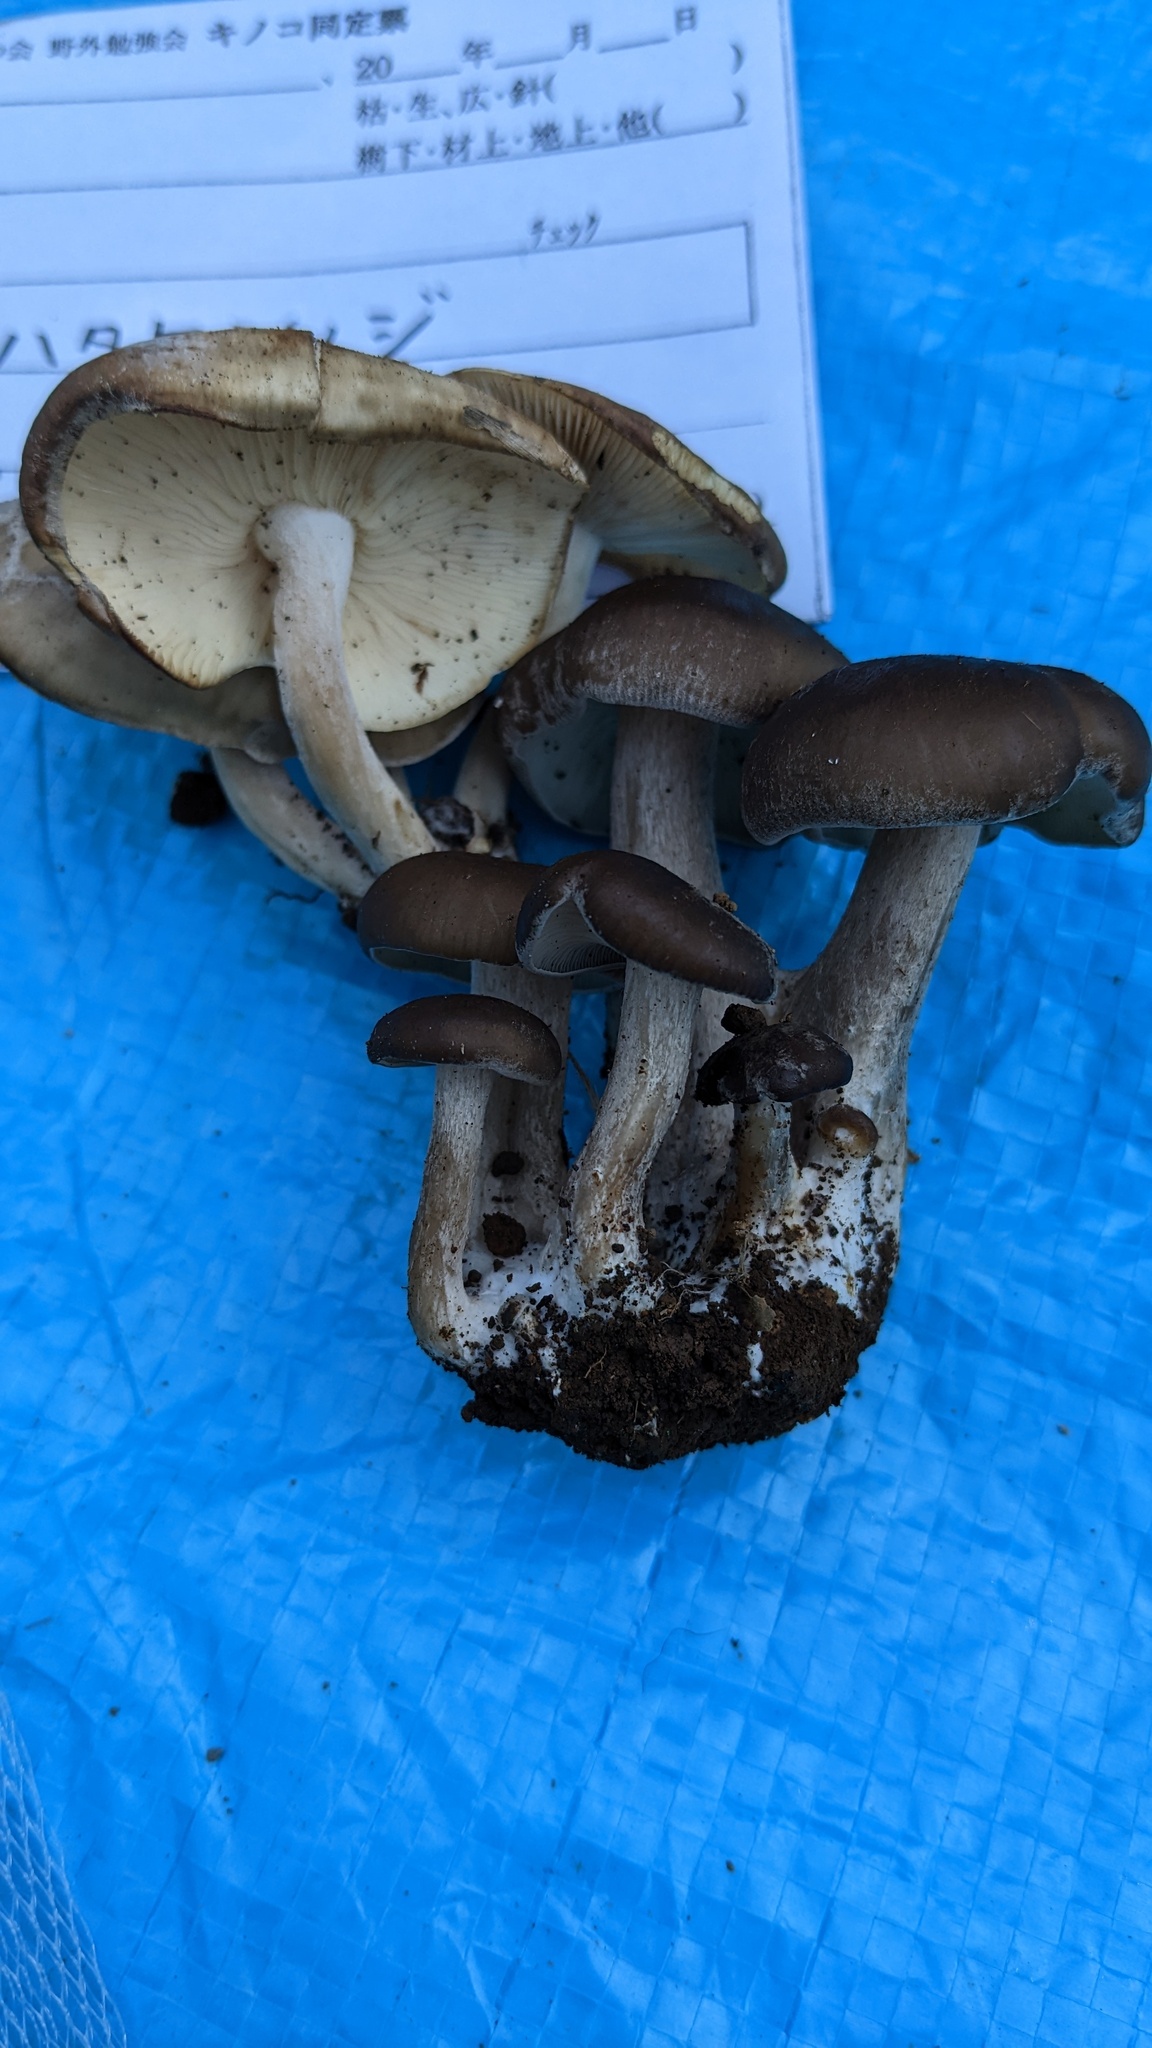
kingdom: Fungi
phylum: Basidiomycota
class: Agaricomycetes
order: Agaricales
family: Lyophyllaceae
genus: Lyophyllum
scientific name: Lyophyllum decastes
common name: Clustered domecap
